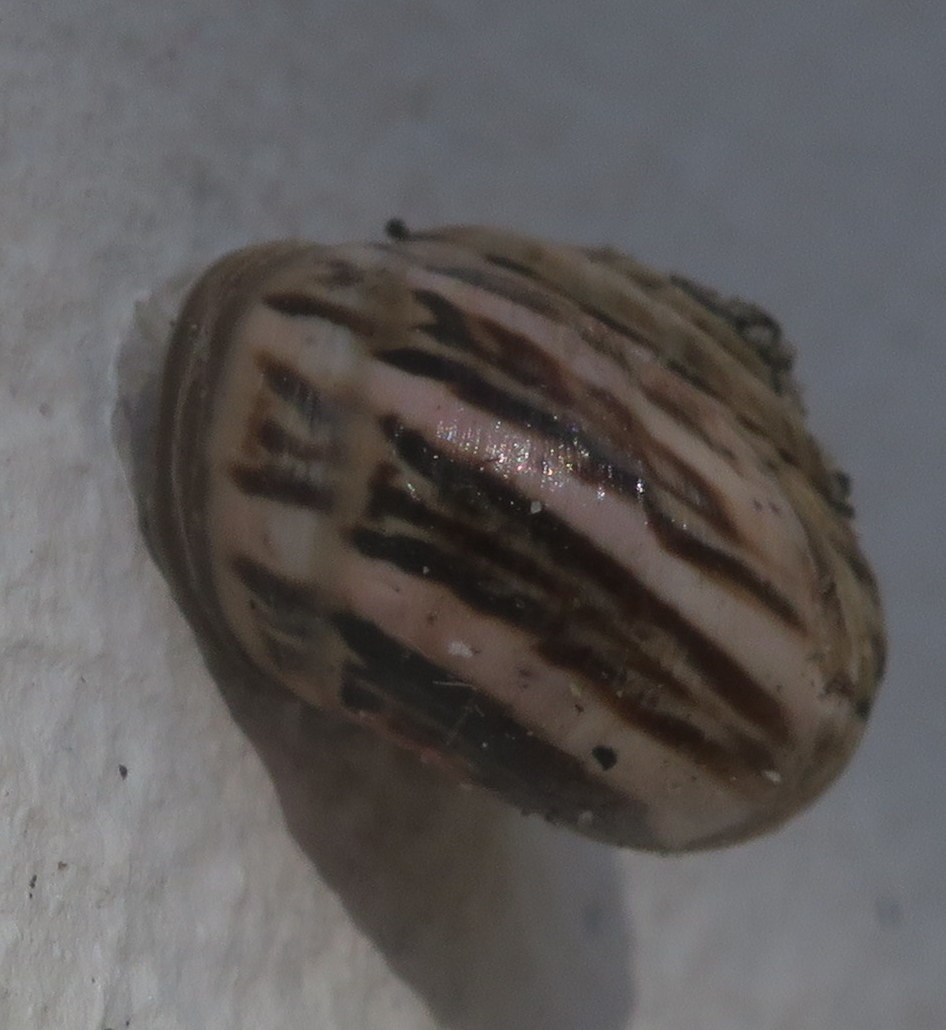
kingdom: Animalia
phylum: Mollusca
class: Gastropoda
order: Stylommatophora
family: Helicidae
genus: Theba
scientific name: Theba pisana
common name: White snail
